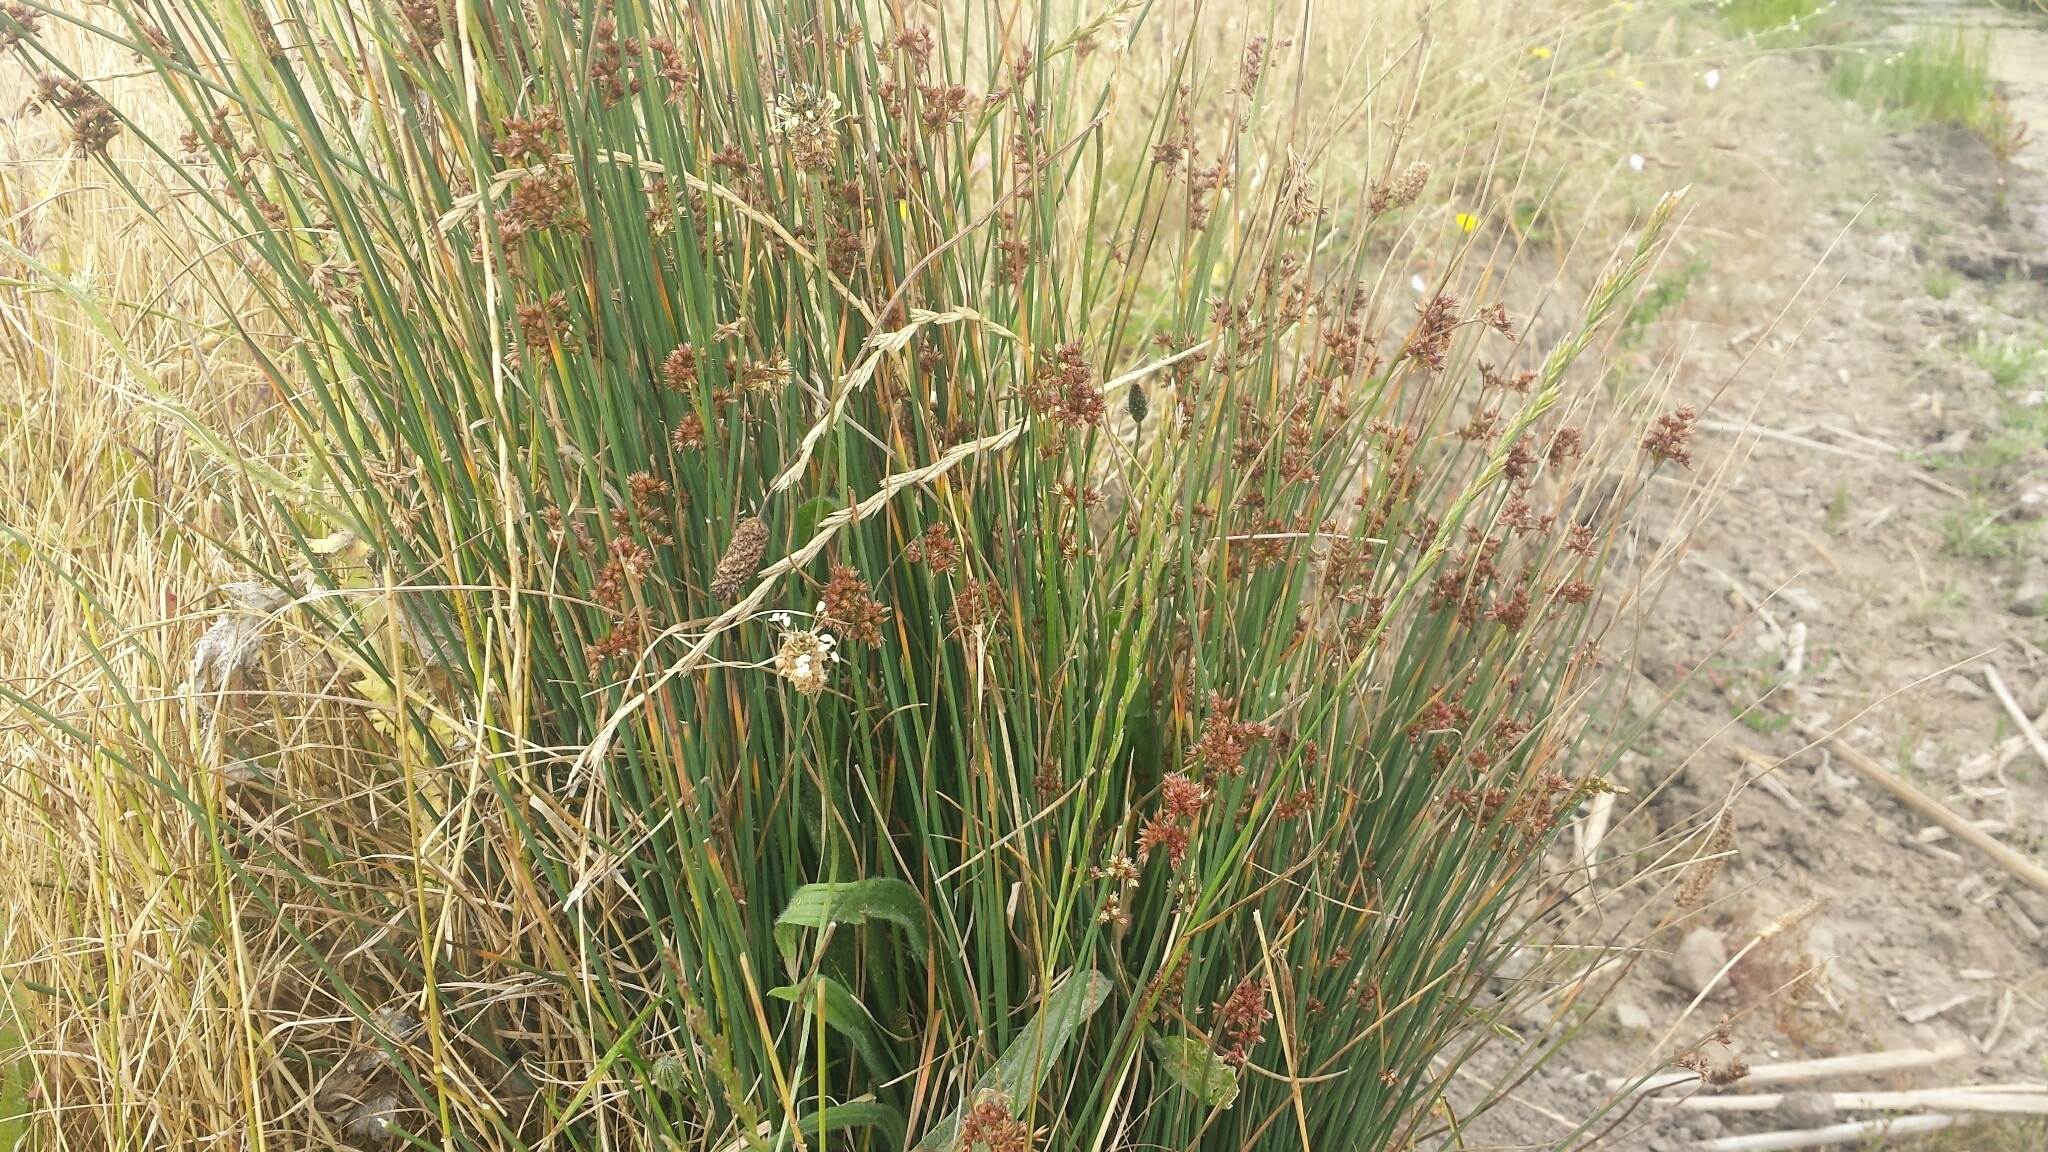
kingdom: Plantae
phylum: Tracheophyta
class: Liliopsida
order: Poales
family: Juncaceae
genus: Juncus
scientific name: Juncus patens
